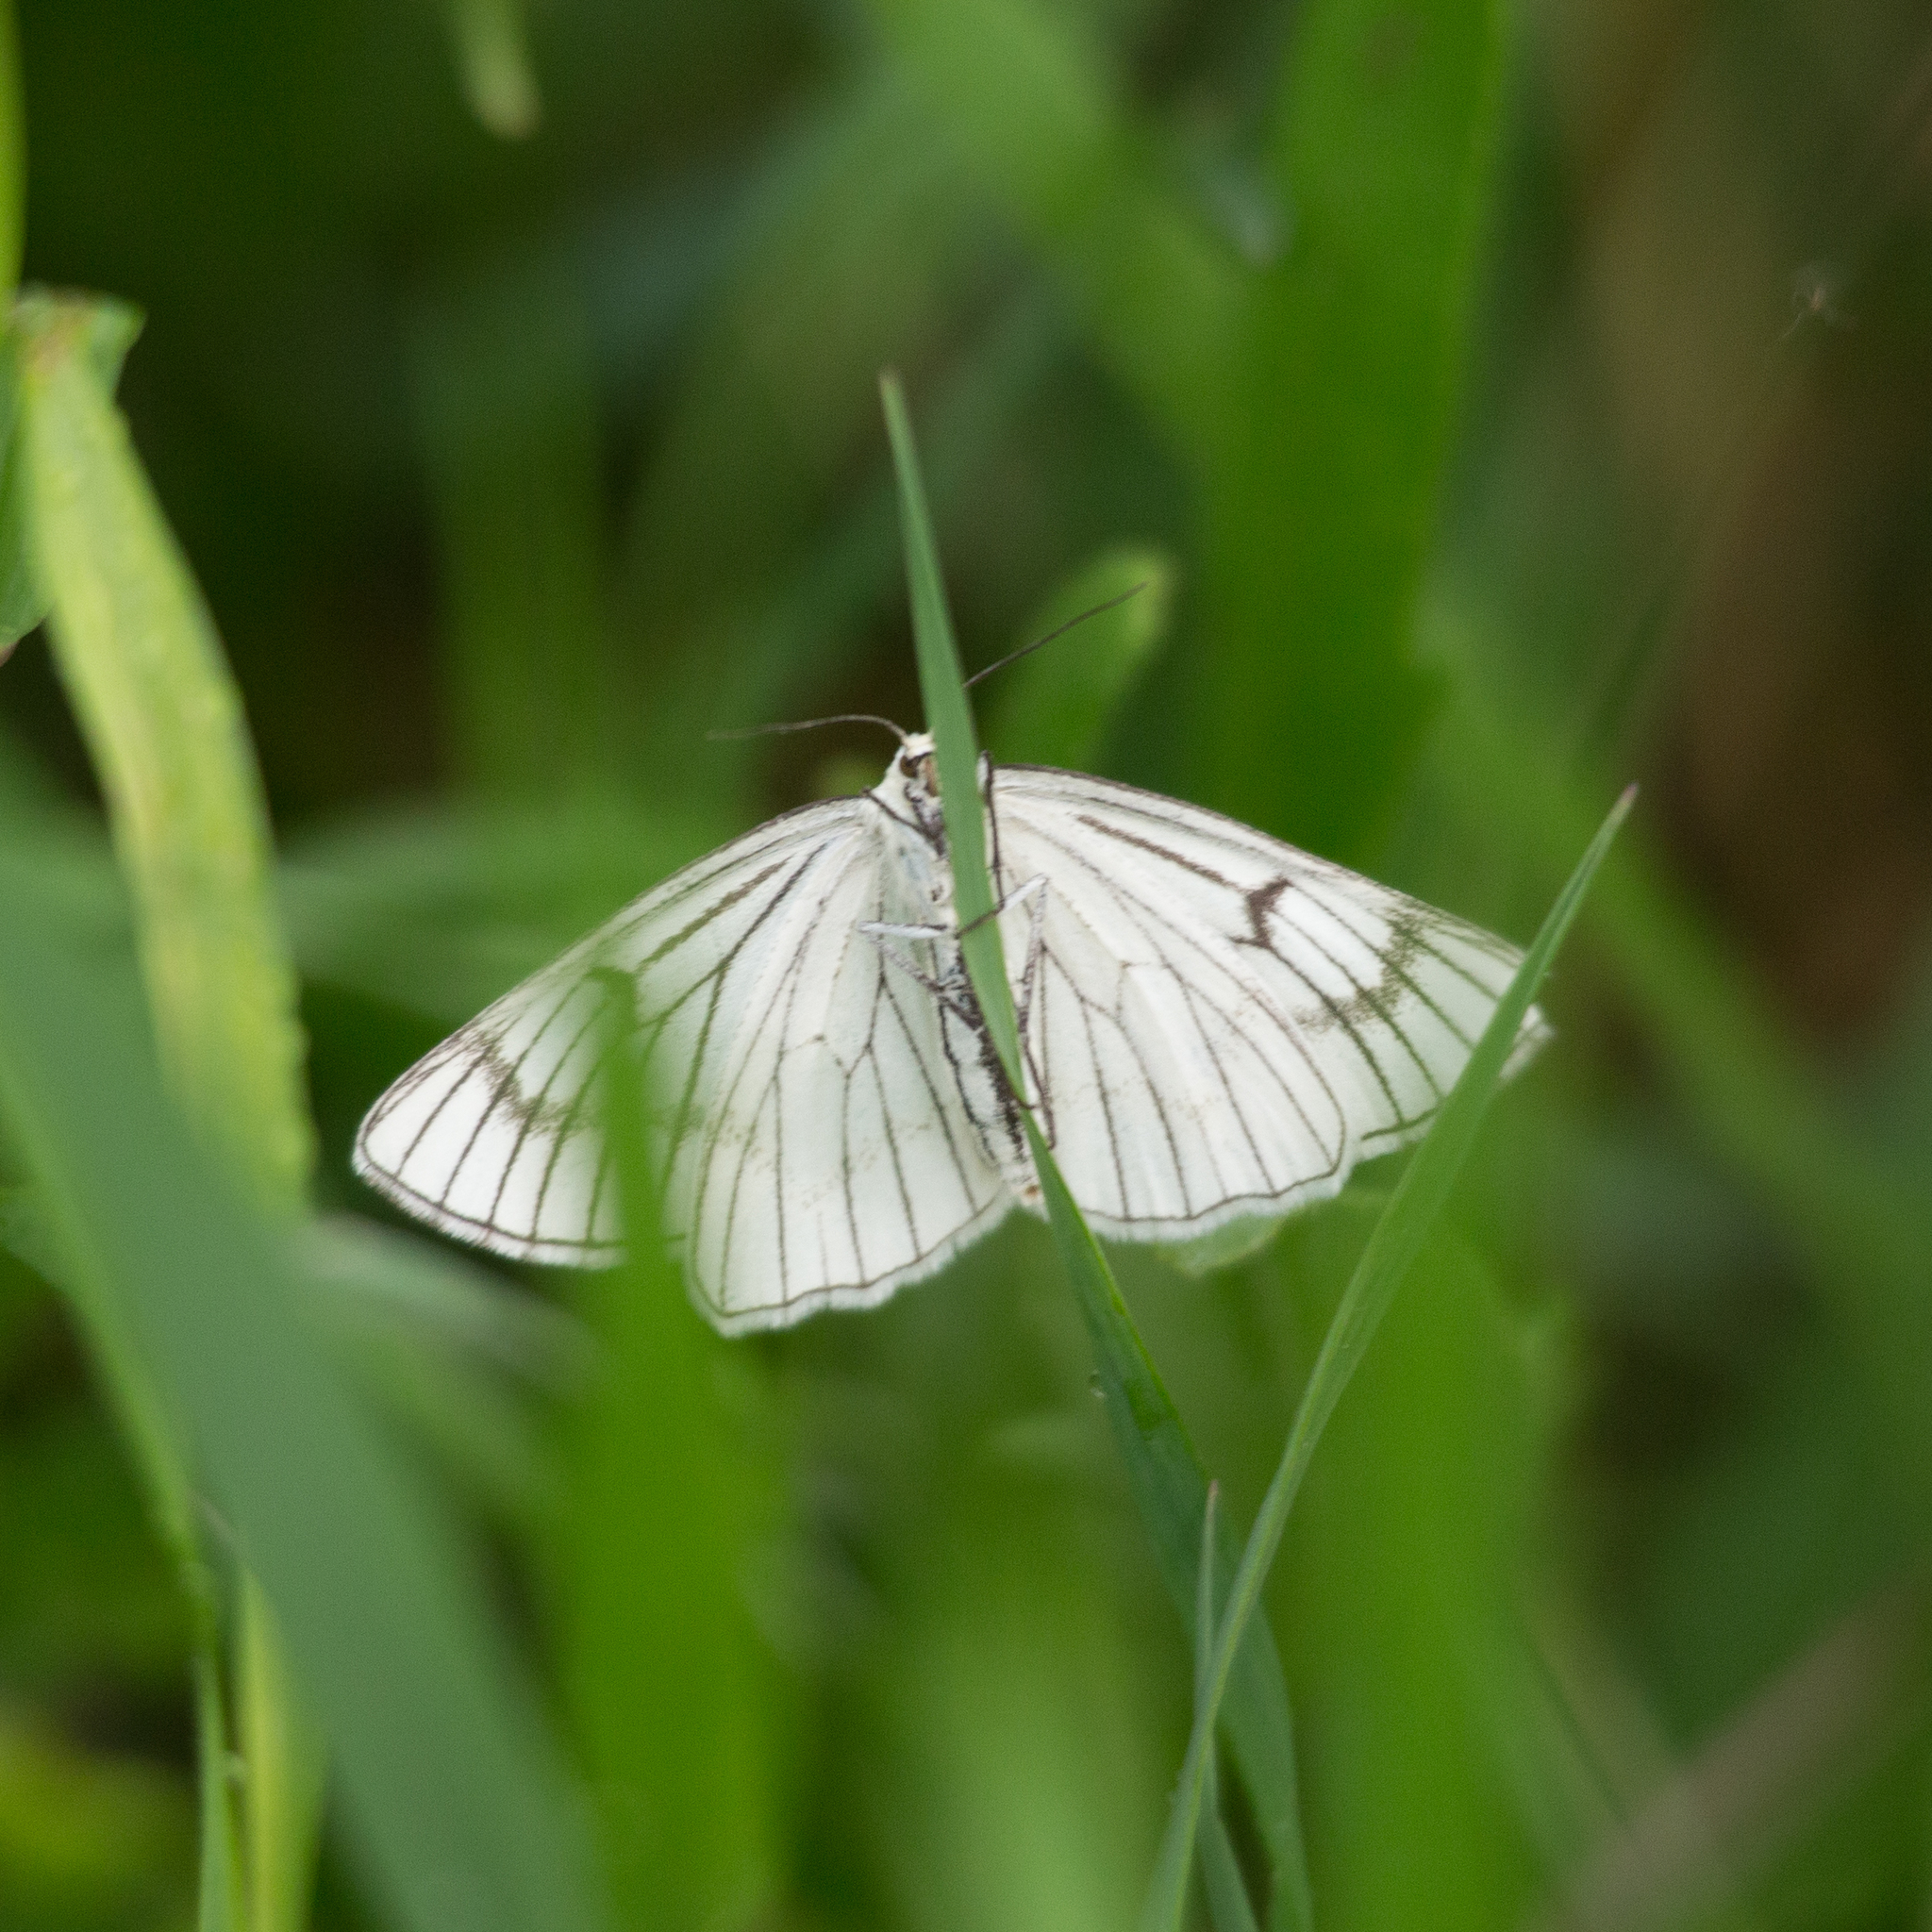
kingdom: Animalia
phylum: Arthropoda
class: Insecta
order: Lepidoptera
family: Geometridae
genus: Siona
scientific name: Siona lineata
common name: Black-veined moth
